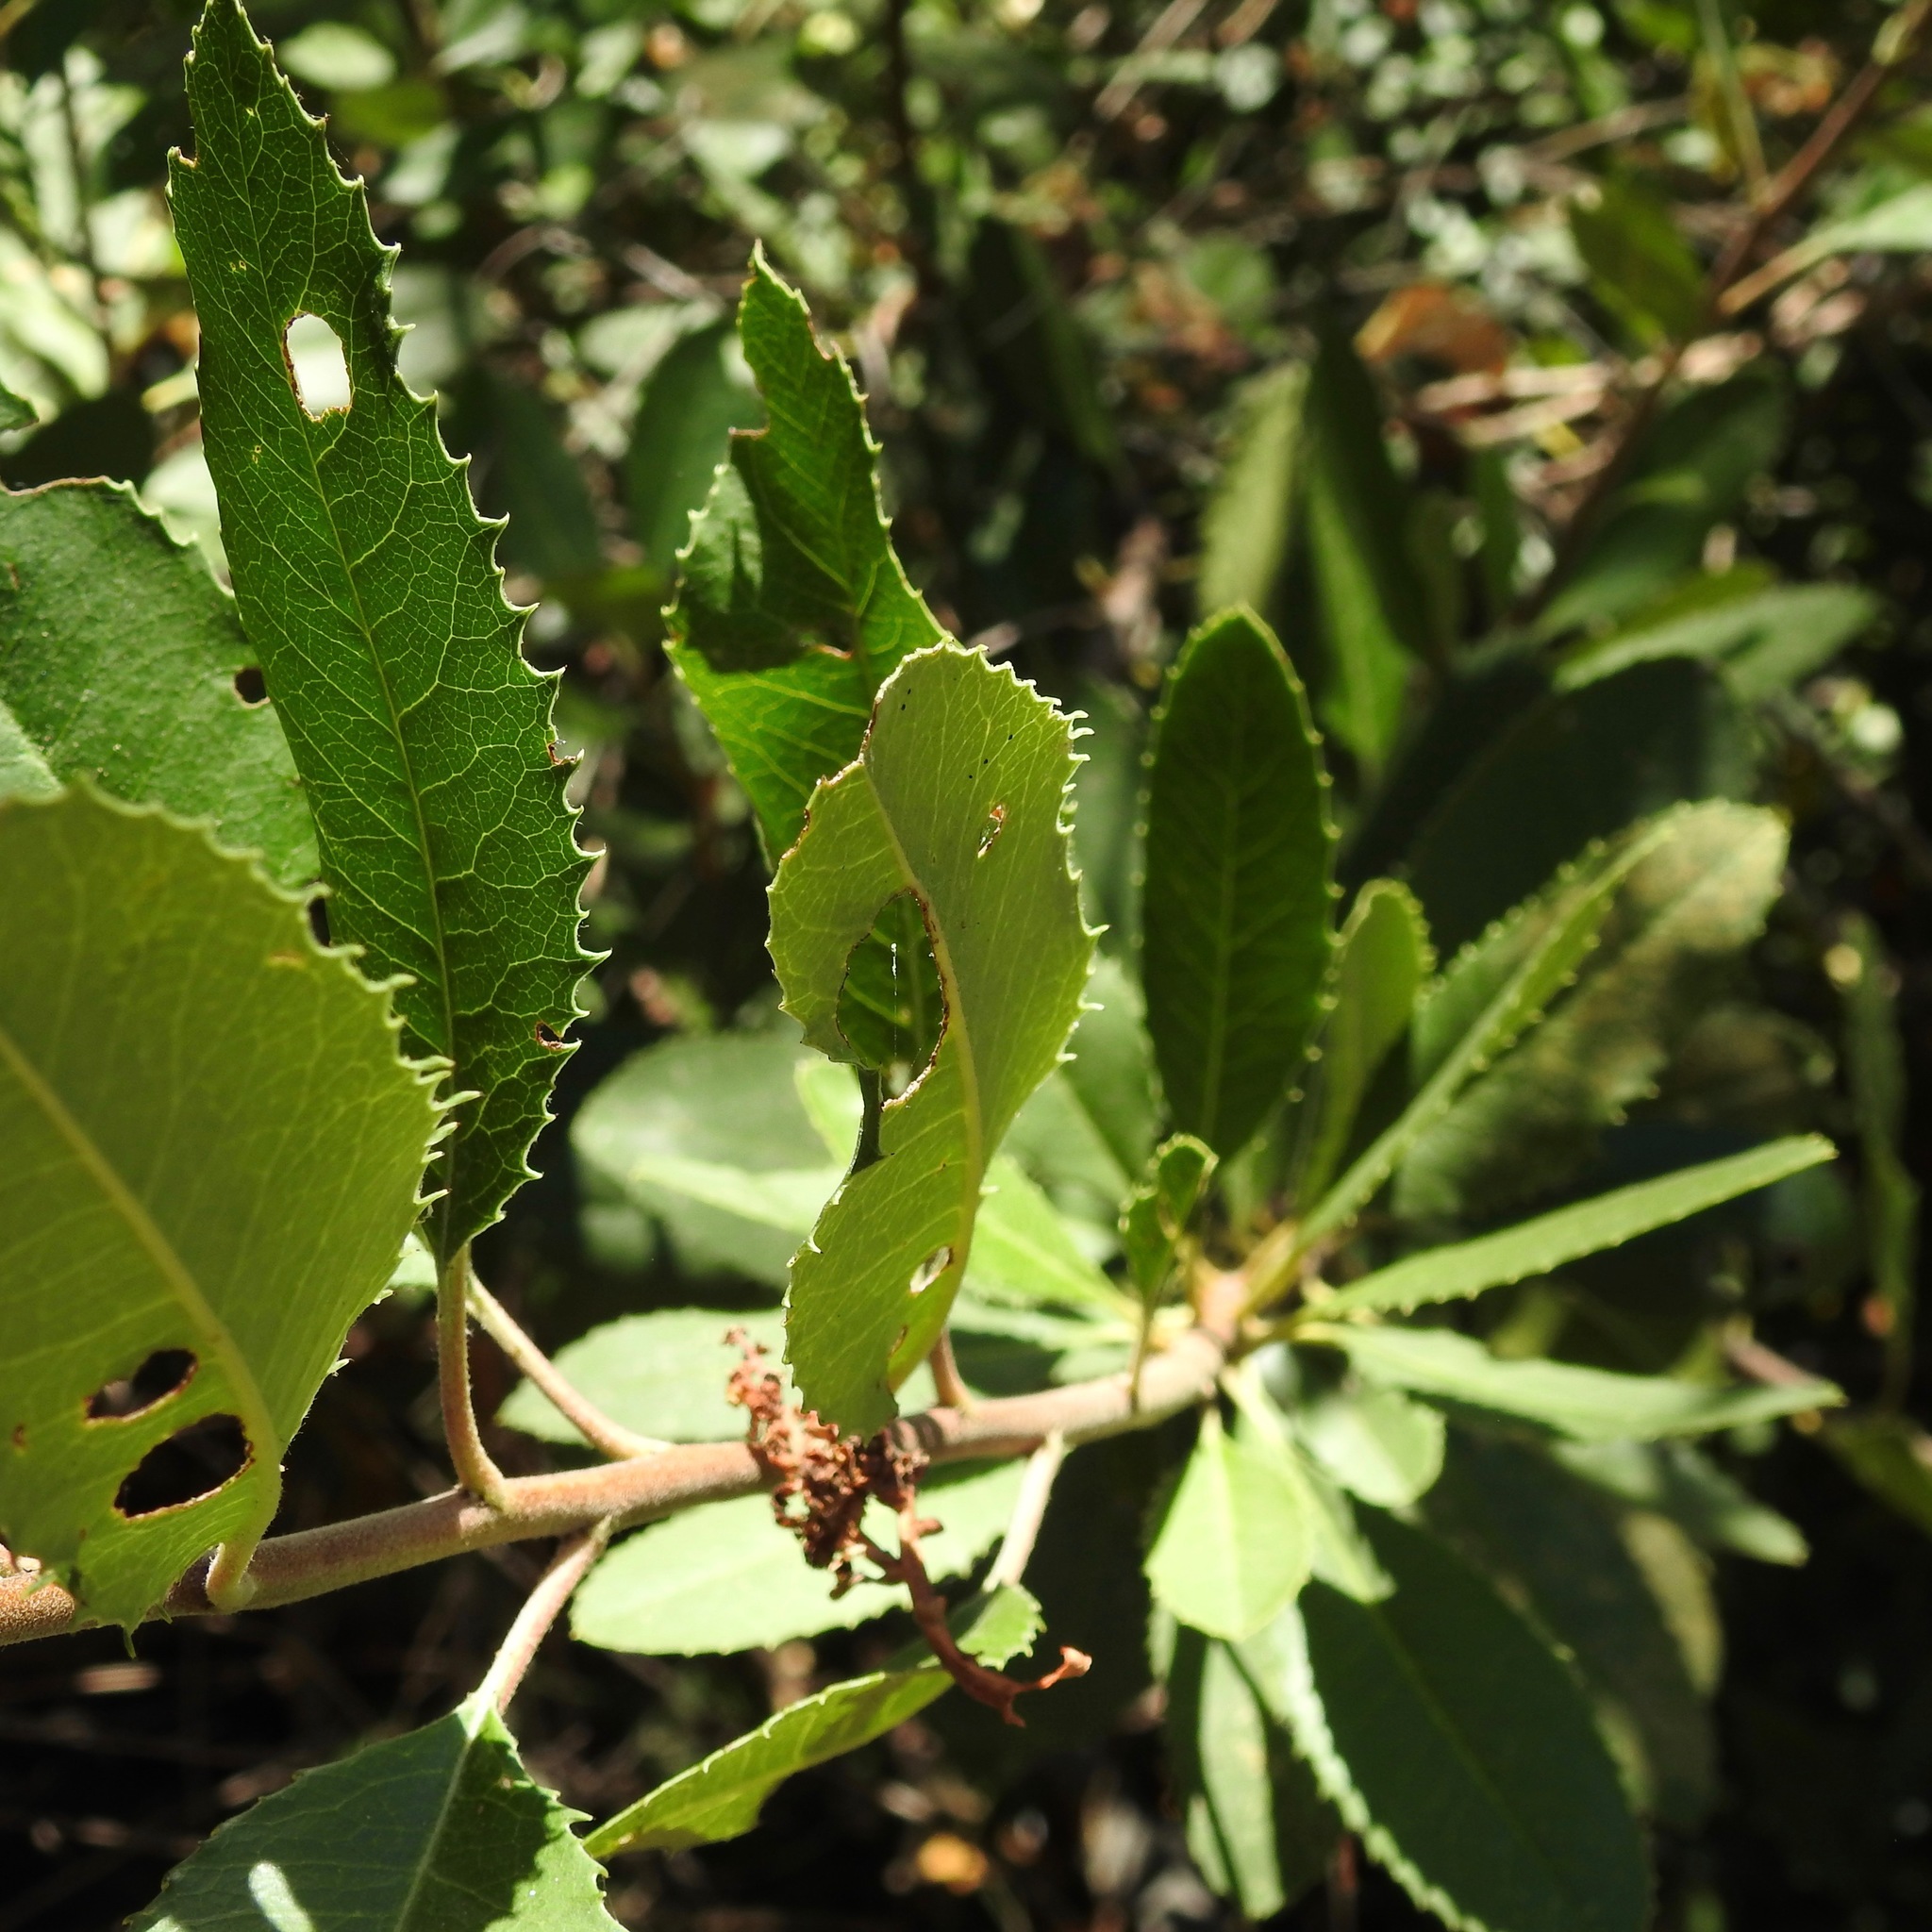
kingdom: Plantae
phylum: Tracheophyta
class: Magnoliopsida
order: Rosales
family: Rosaceae
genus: Heteromeles
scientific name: Heteromeles arbutifolia
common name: California-holly
